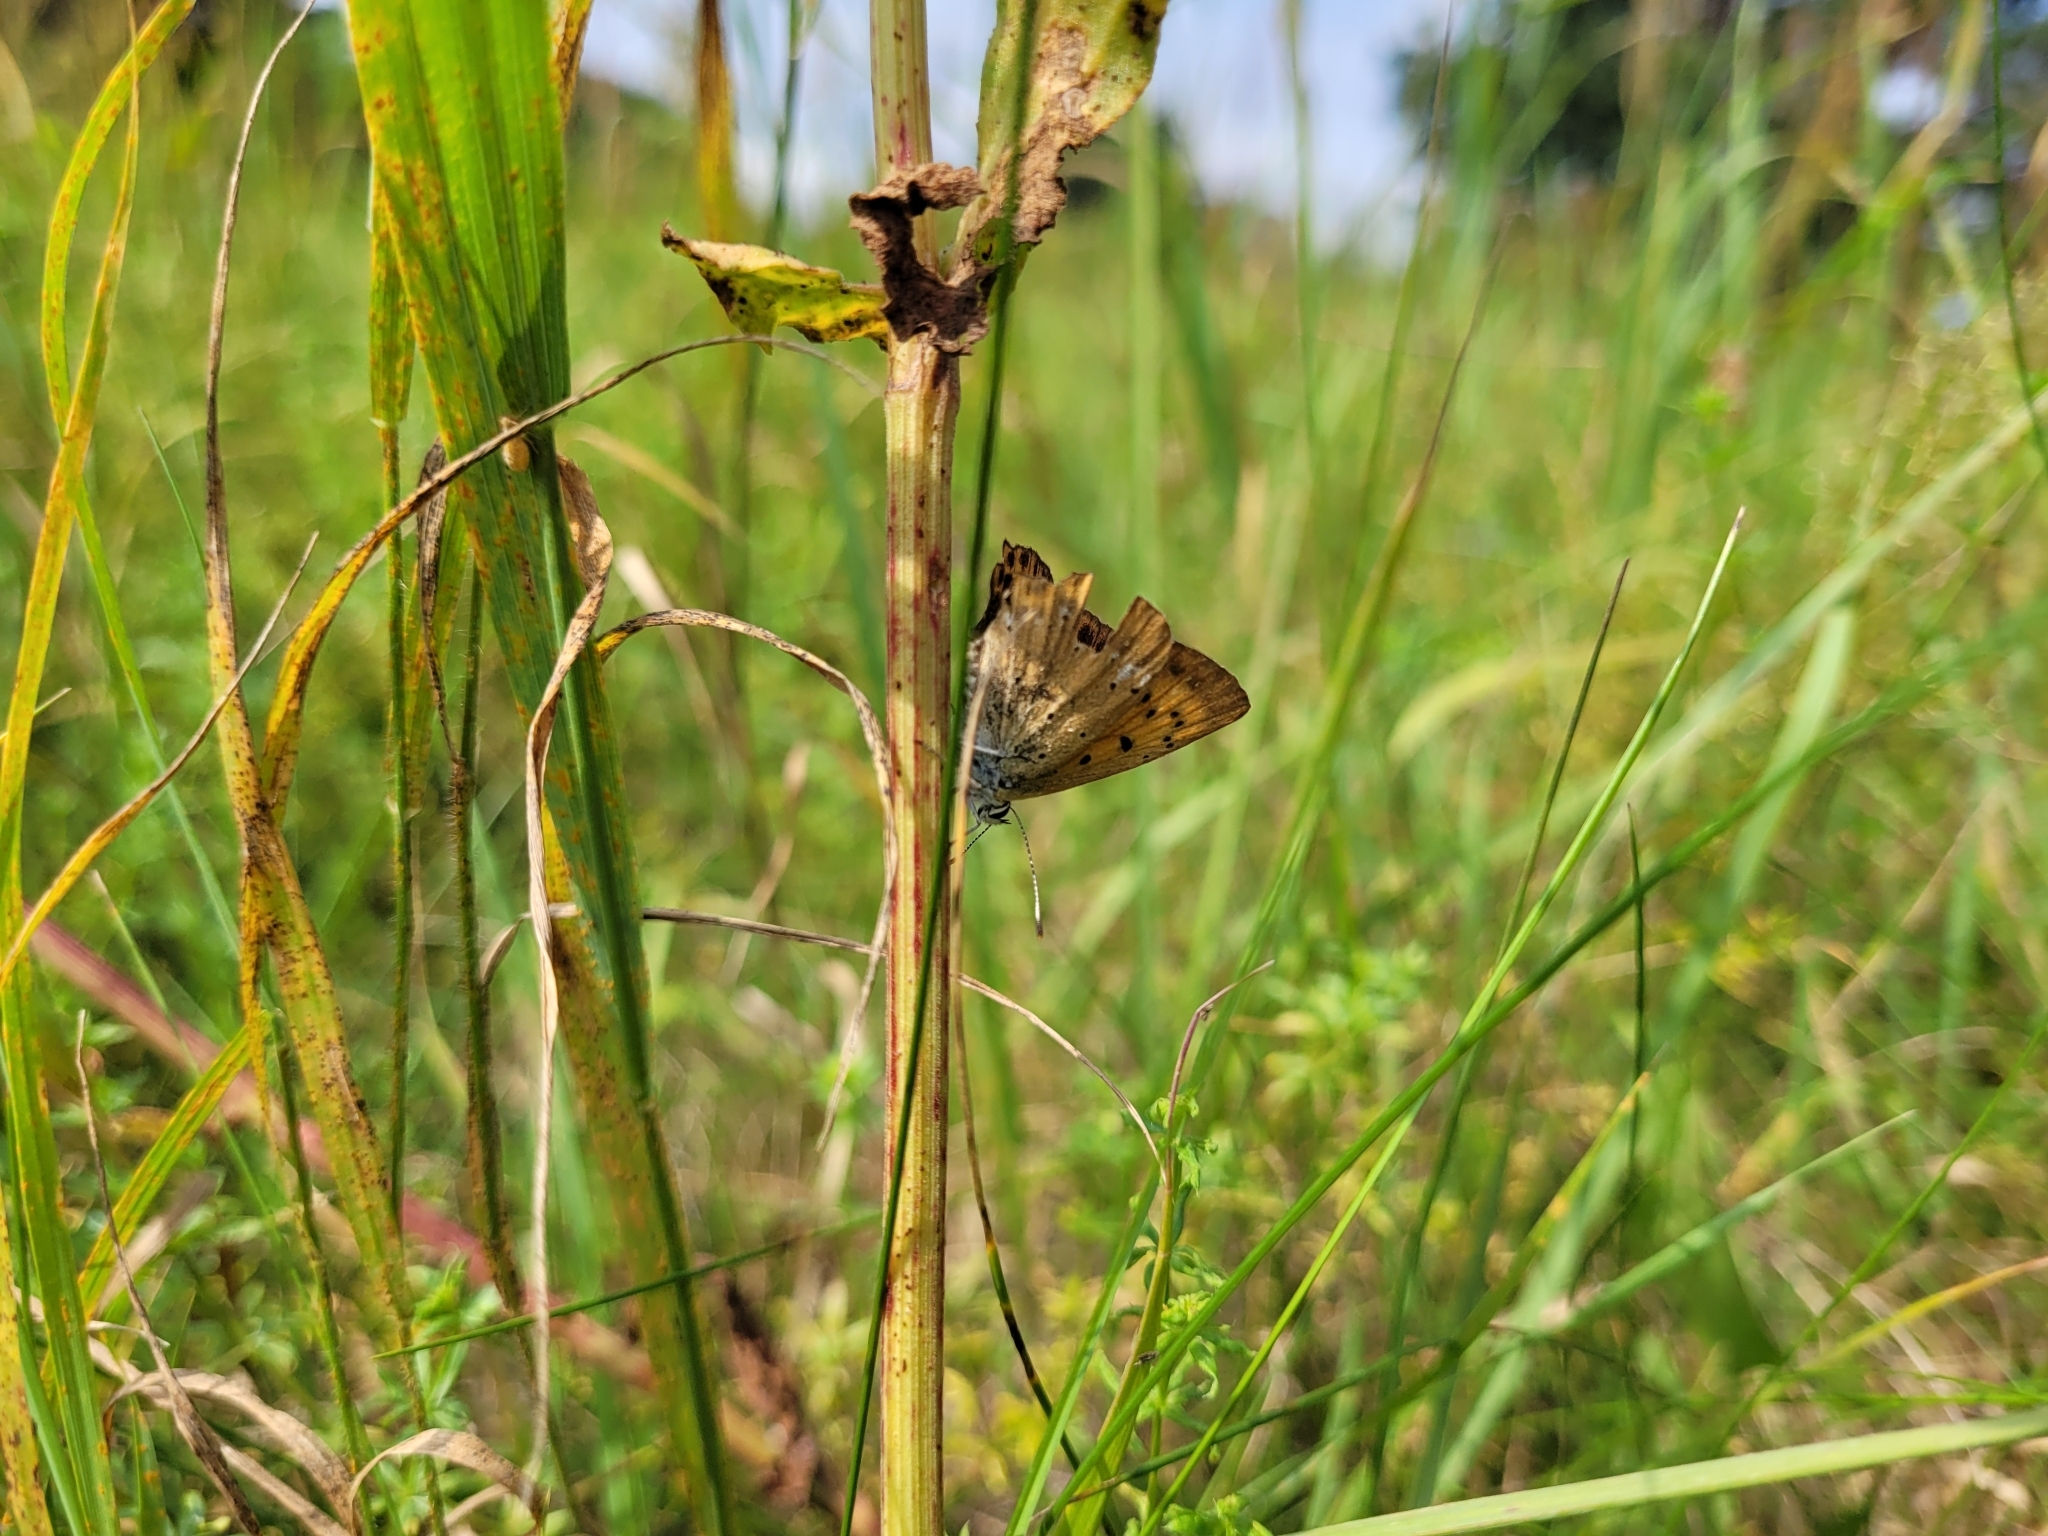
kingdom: Animalia
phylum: Arthropoda
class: Insecta
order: Lepidoptera
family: Lycaenidae
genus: Lycaena
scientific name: Lycaena virgaureae
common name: Scarce copper
